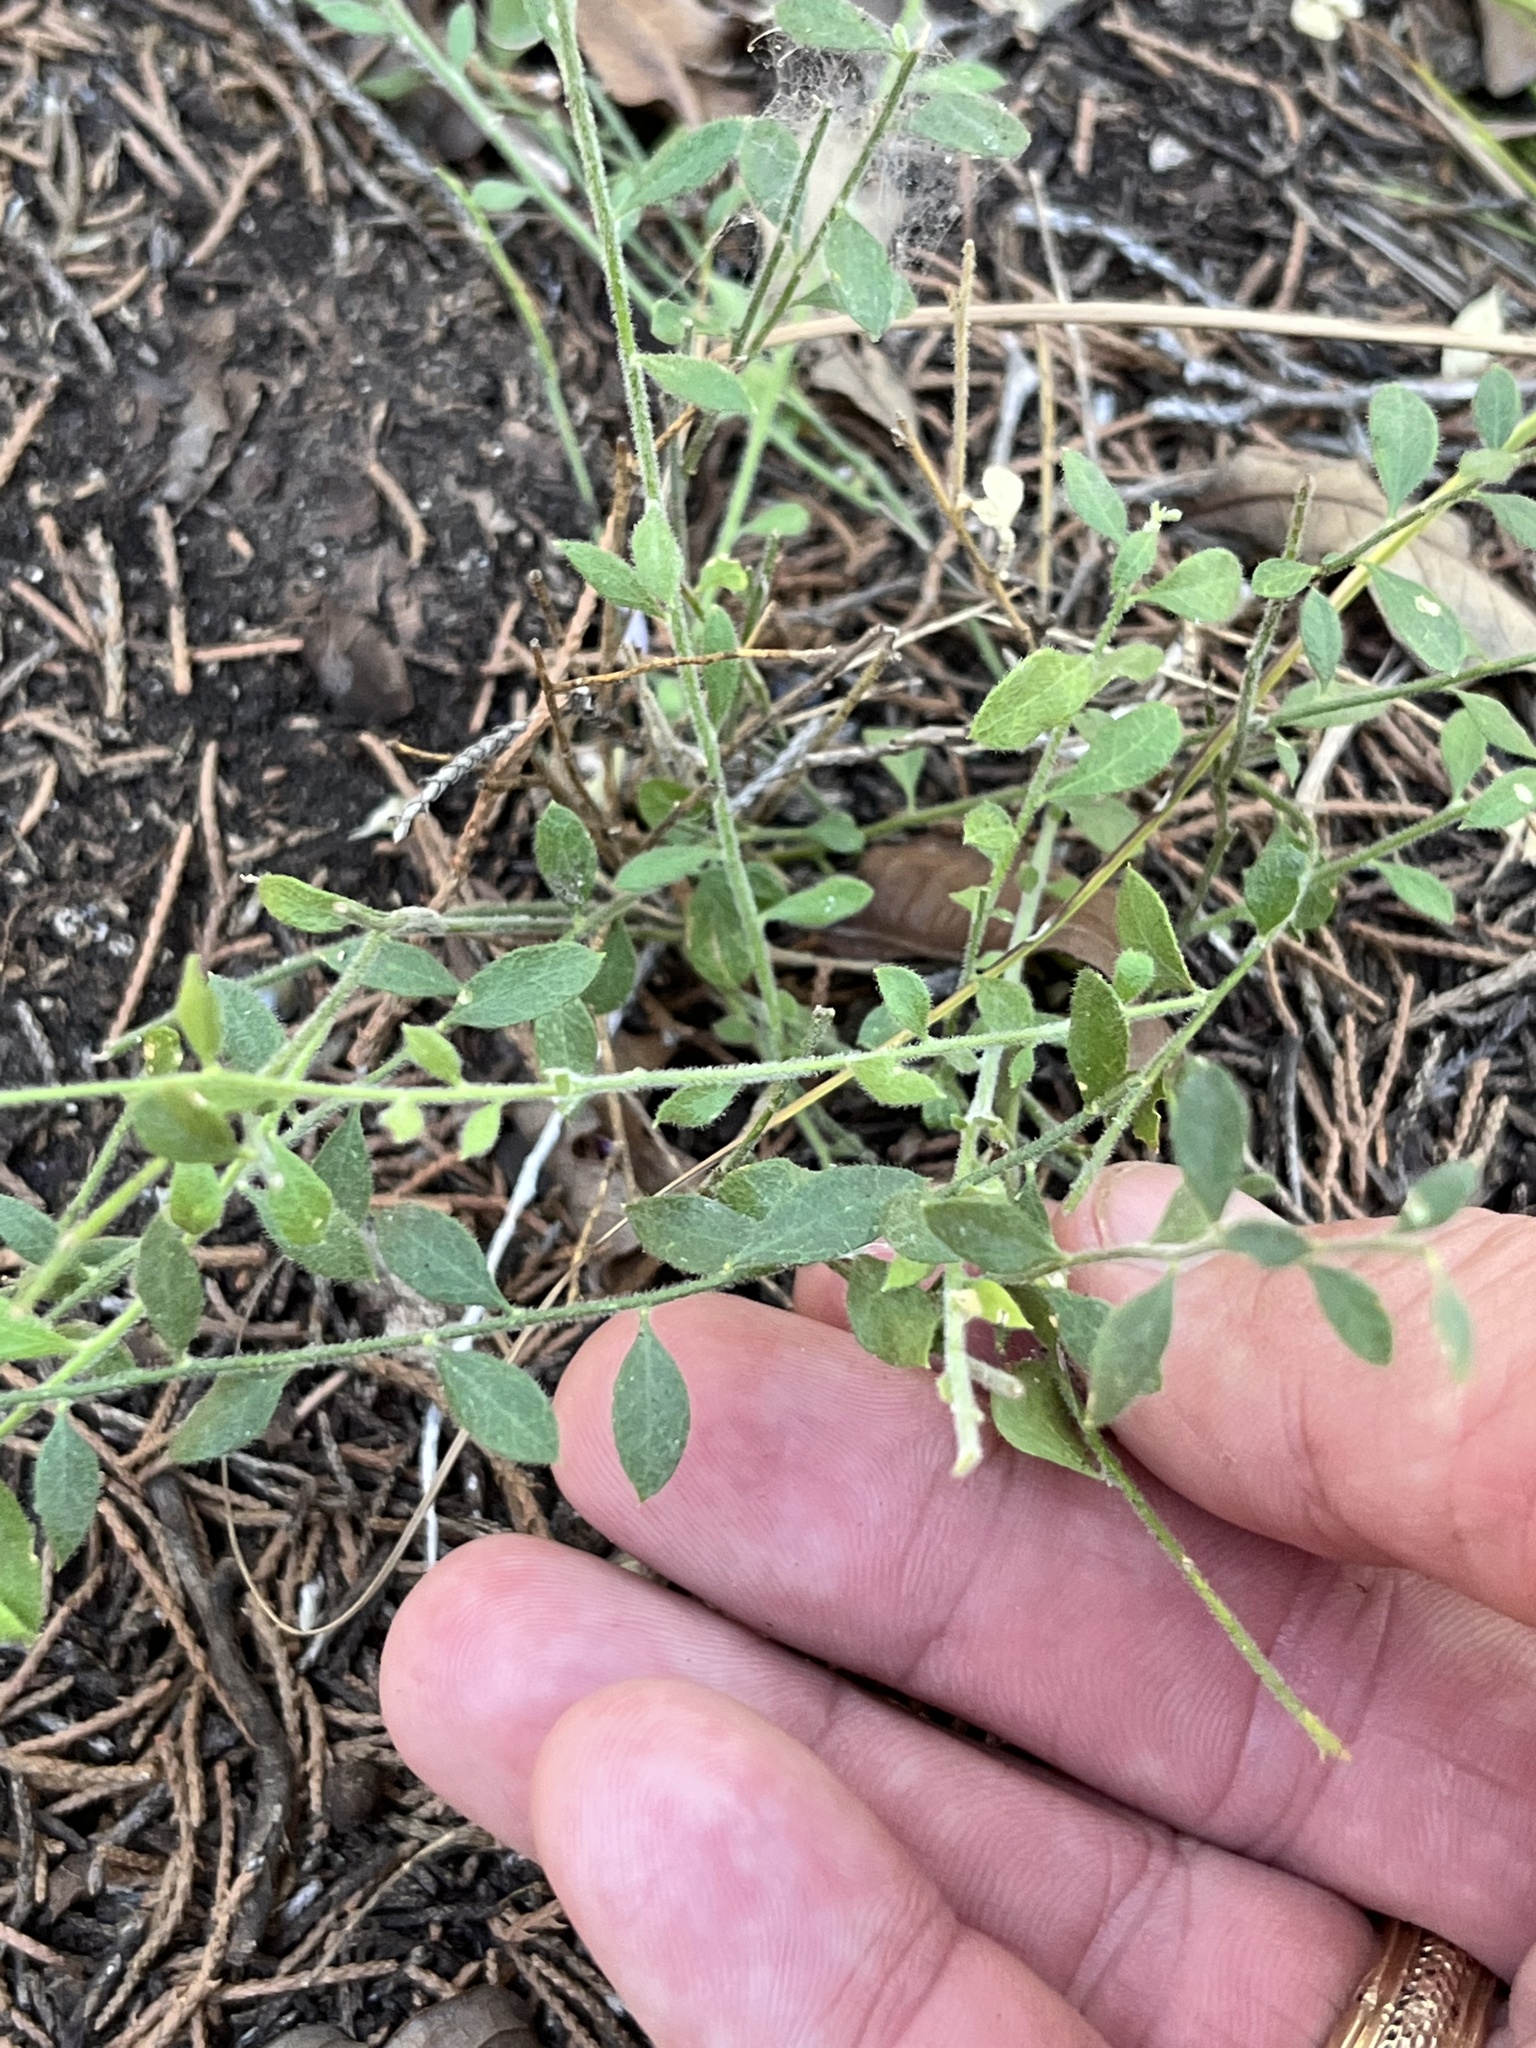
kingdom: Plantae
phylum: Tracheophyta
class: Magnoliopsida
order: Fabales
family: Polygalaceae
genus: Rhinotropis
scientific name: Rhinotropis lindheimeri
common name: Shrubby milkwort
